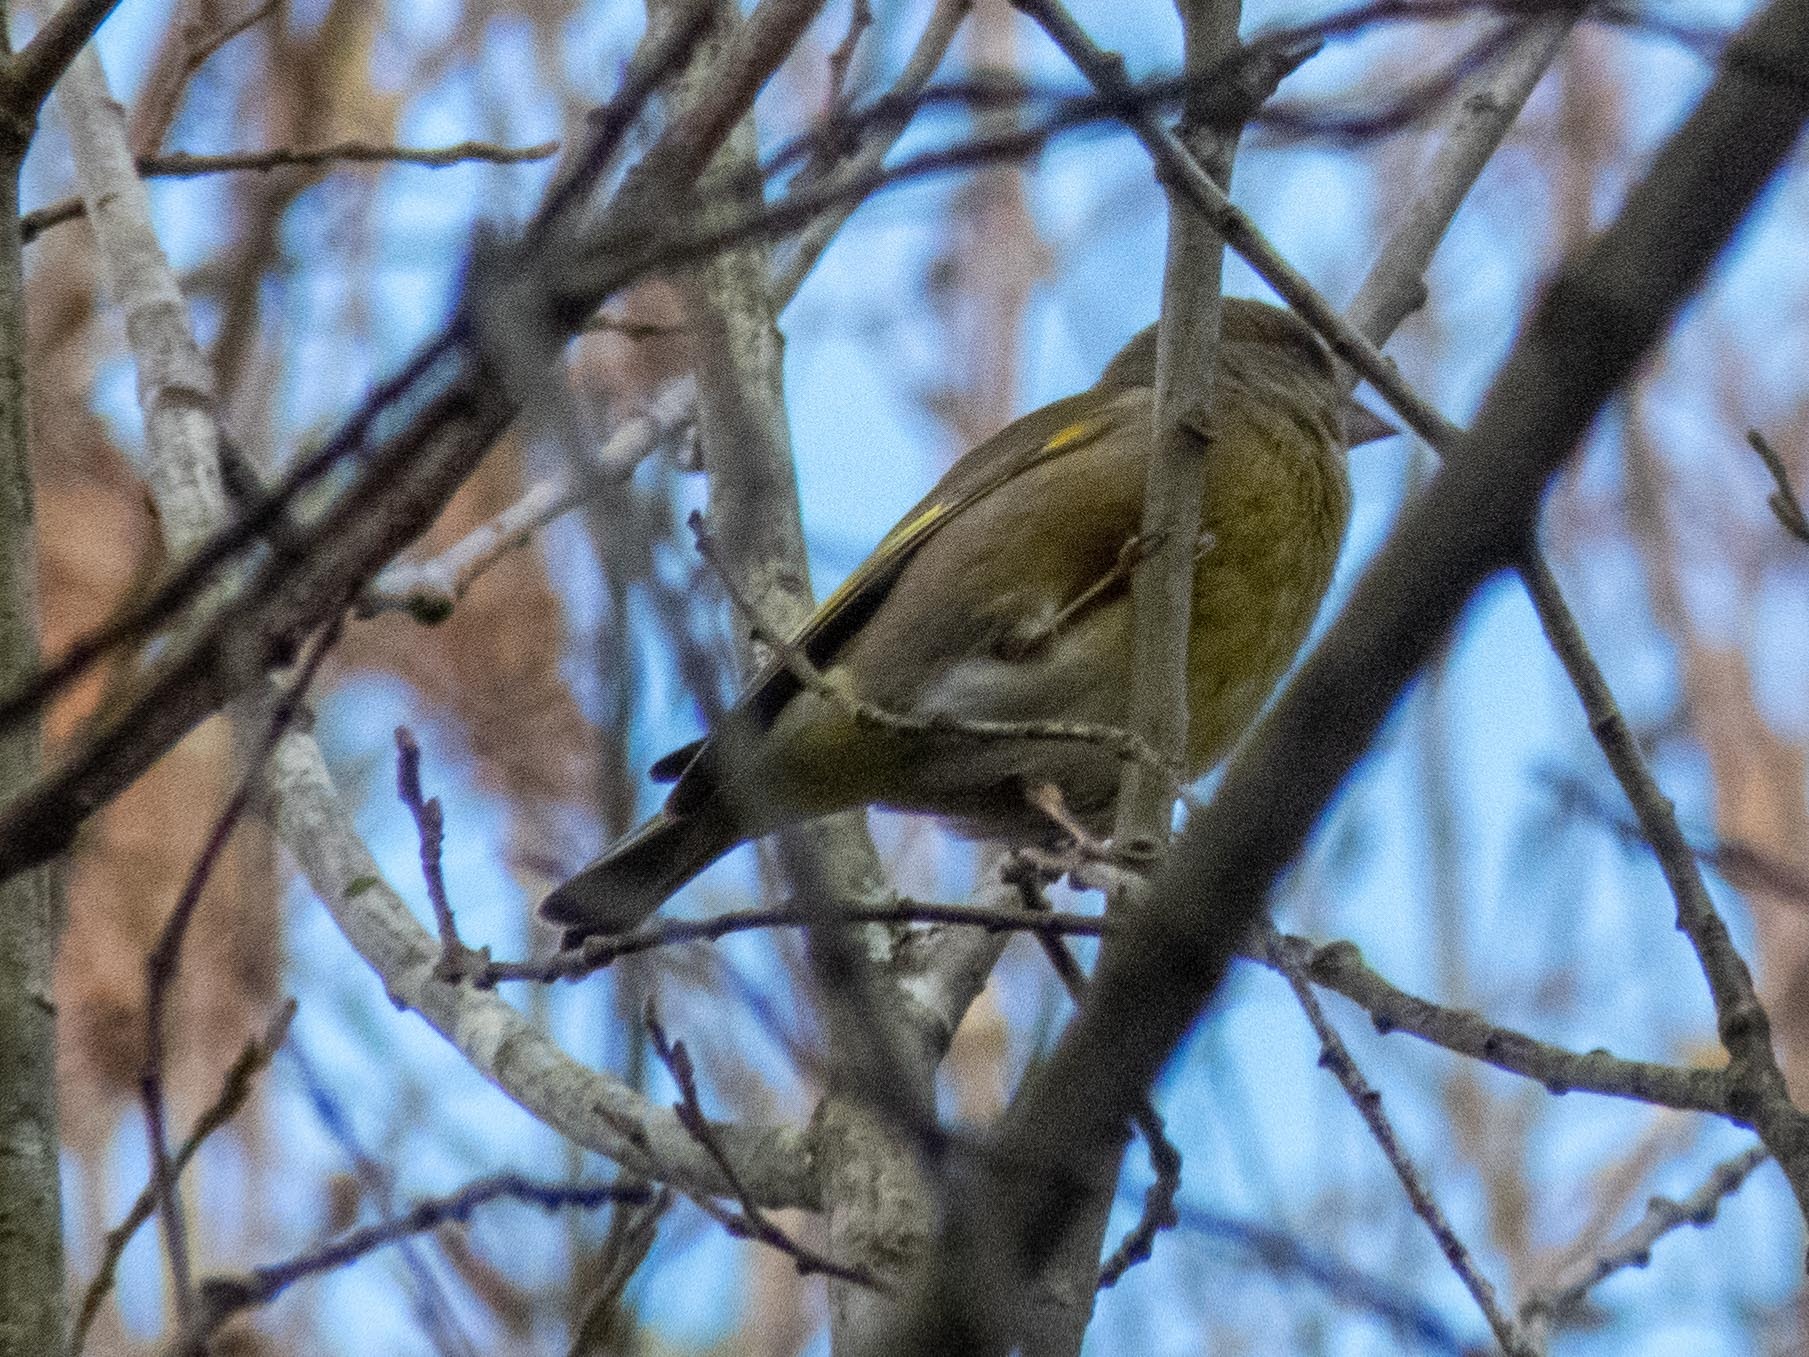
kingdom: Plantae
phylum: Tracheophyta
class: Liliopsida
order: Poales
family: Poaceae
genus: Chloris
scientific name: Chloris chloris
